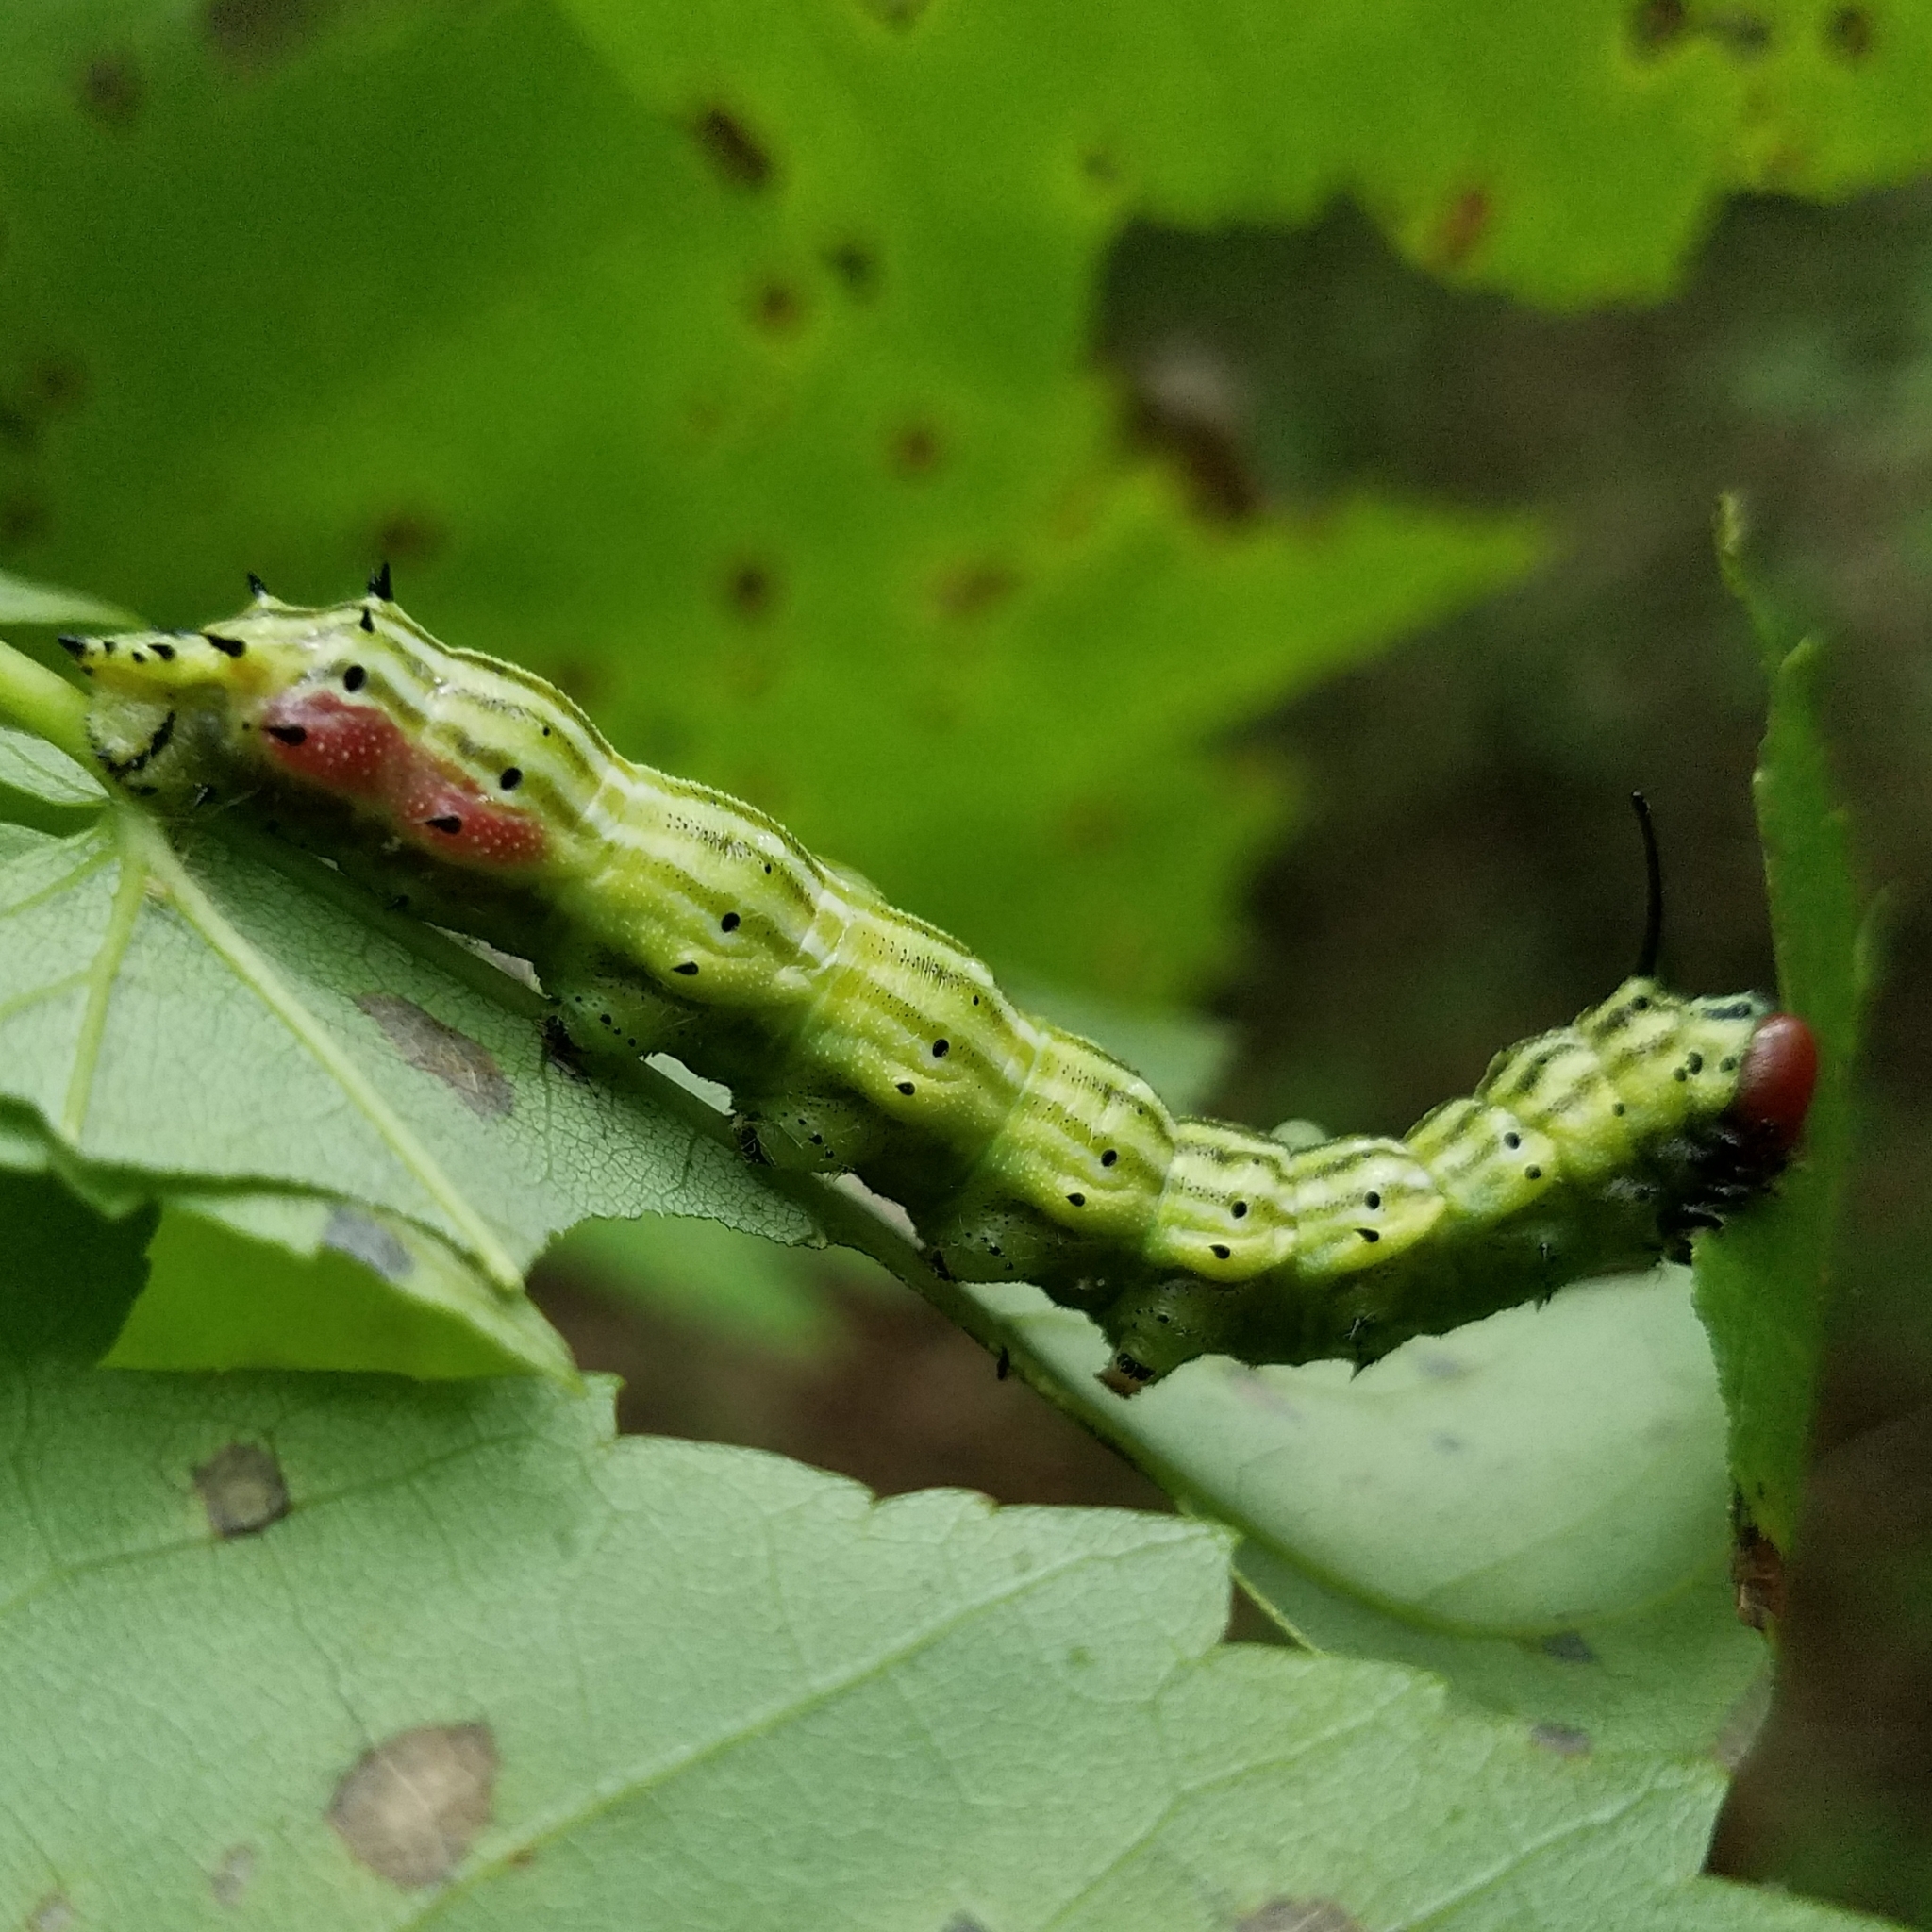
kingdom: Animalia
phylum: Arthropoda
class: Insecta
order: Lepidoptera
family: Saturniidae
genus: Dryocampa
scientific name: Dryocampa rubicunda
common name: Rosy maple moth
